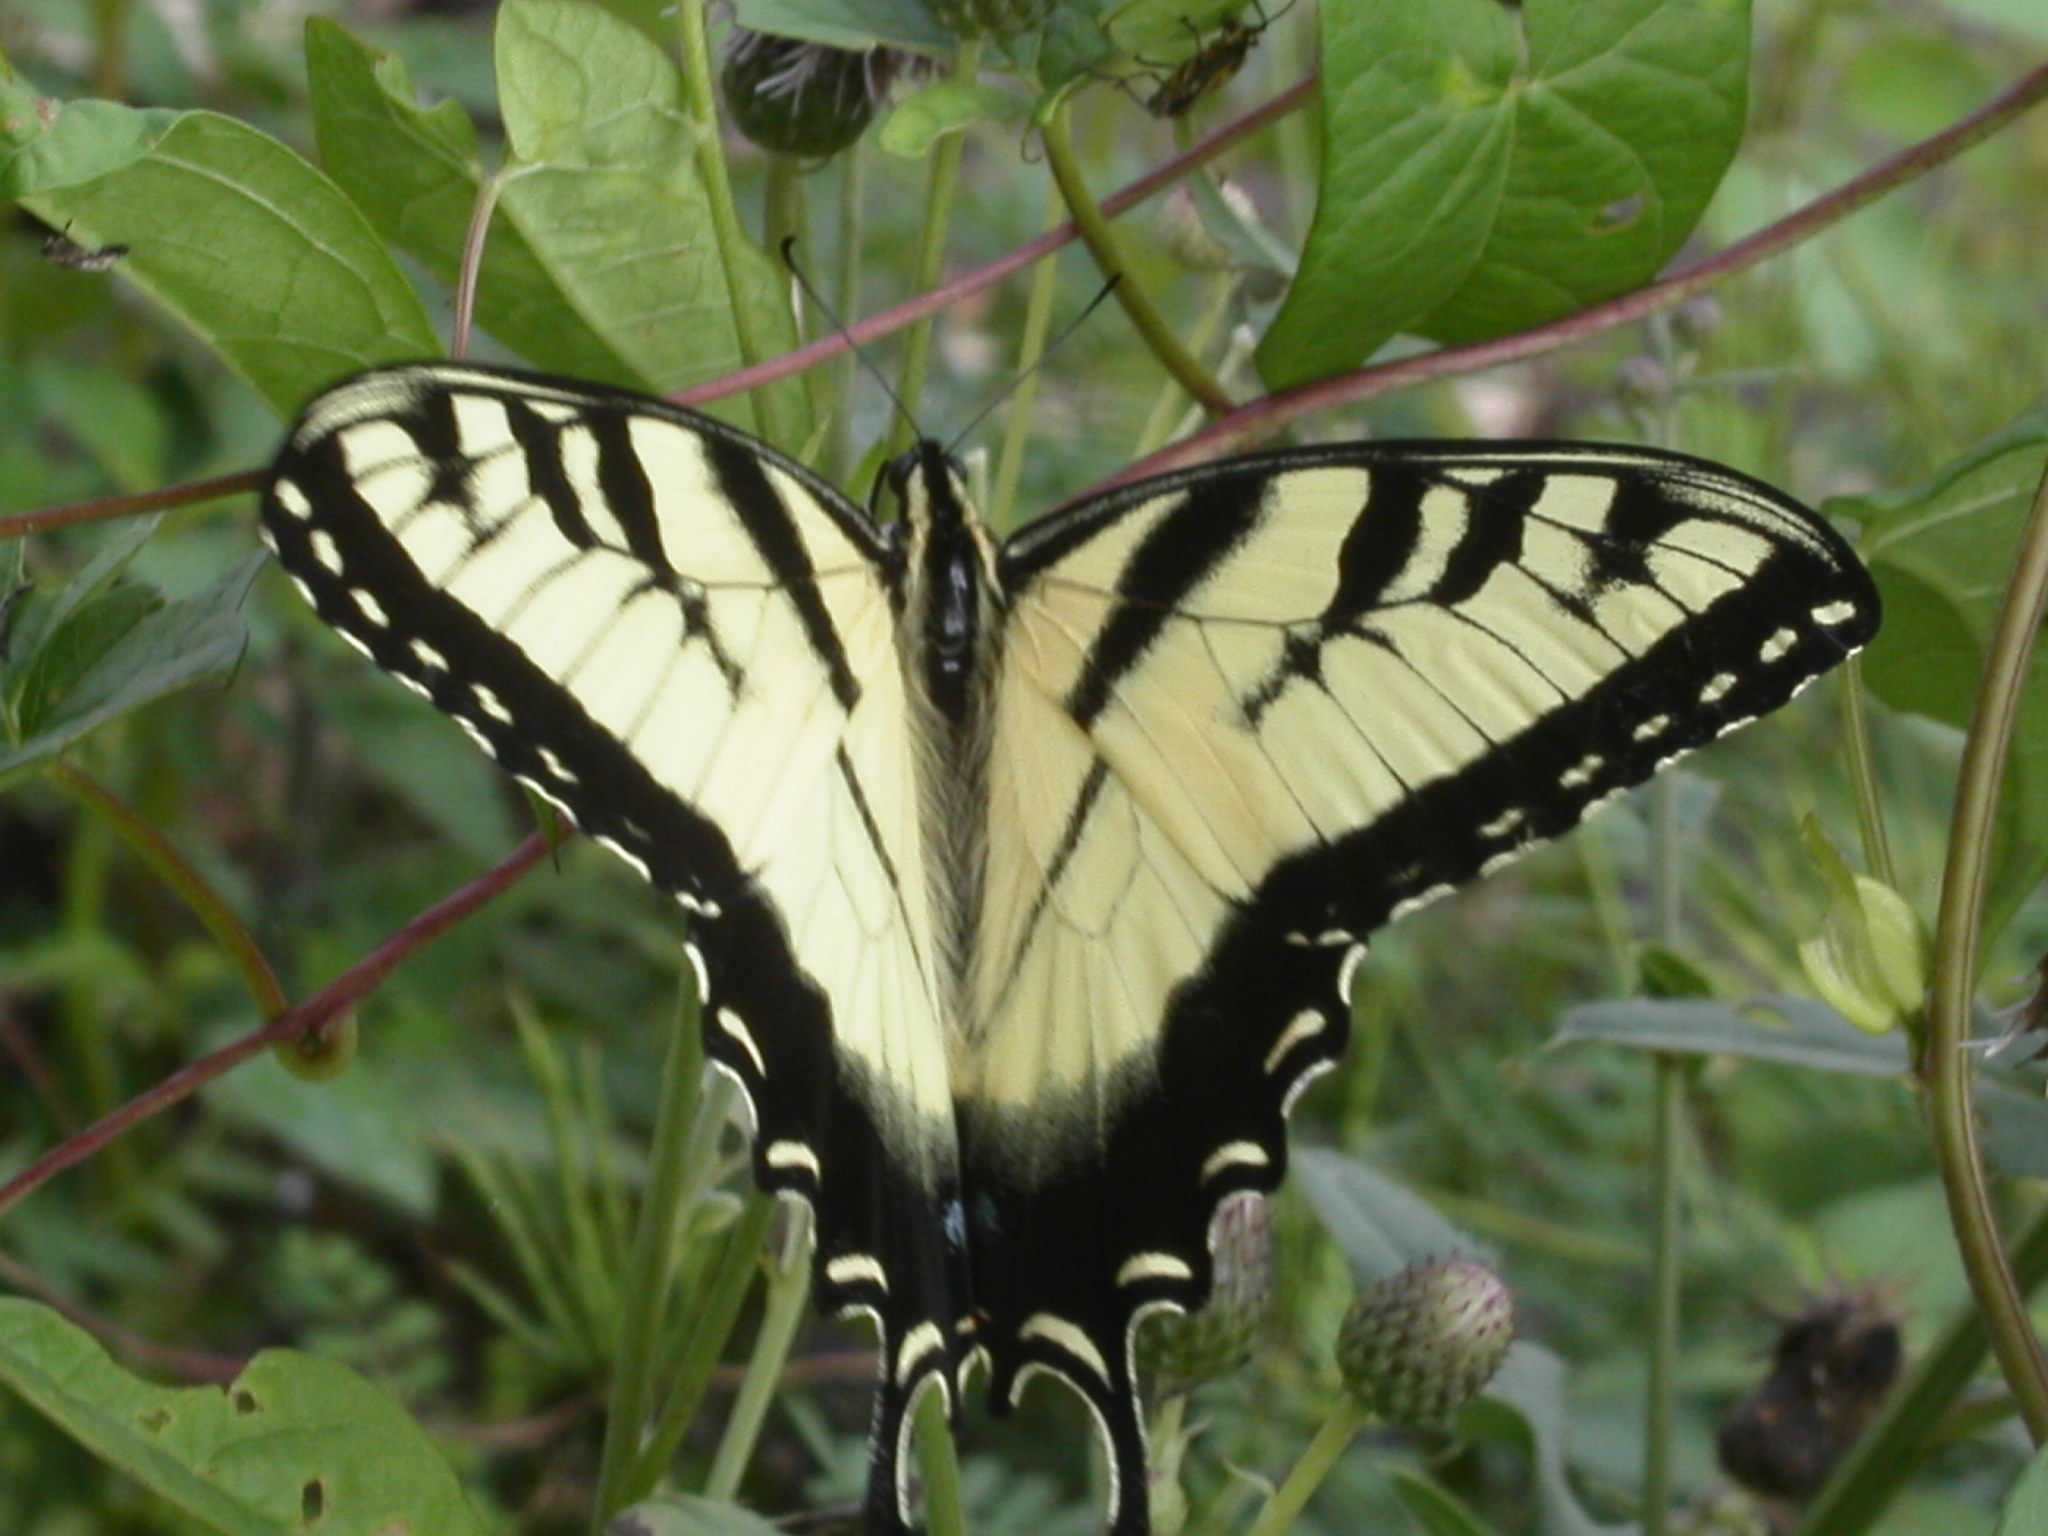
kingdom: Animalia
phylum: Arthropoda
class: Insecta
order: Lepidoptera
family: Papilionidae
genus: Papilio
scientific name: Papilio glaucus
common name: Tiger swallowtail
